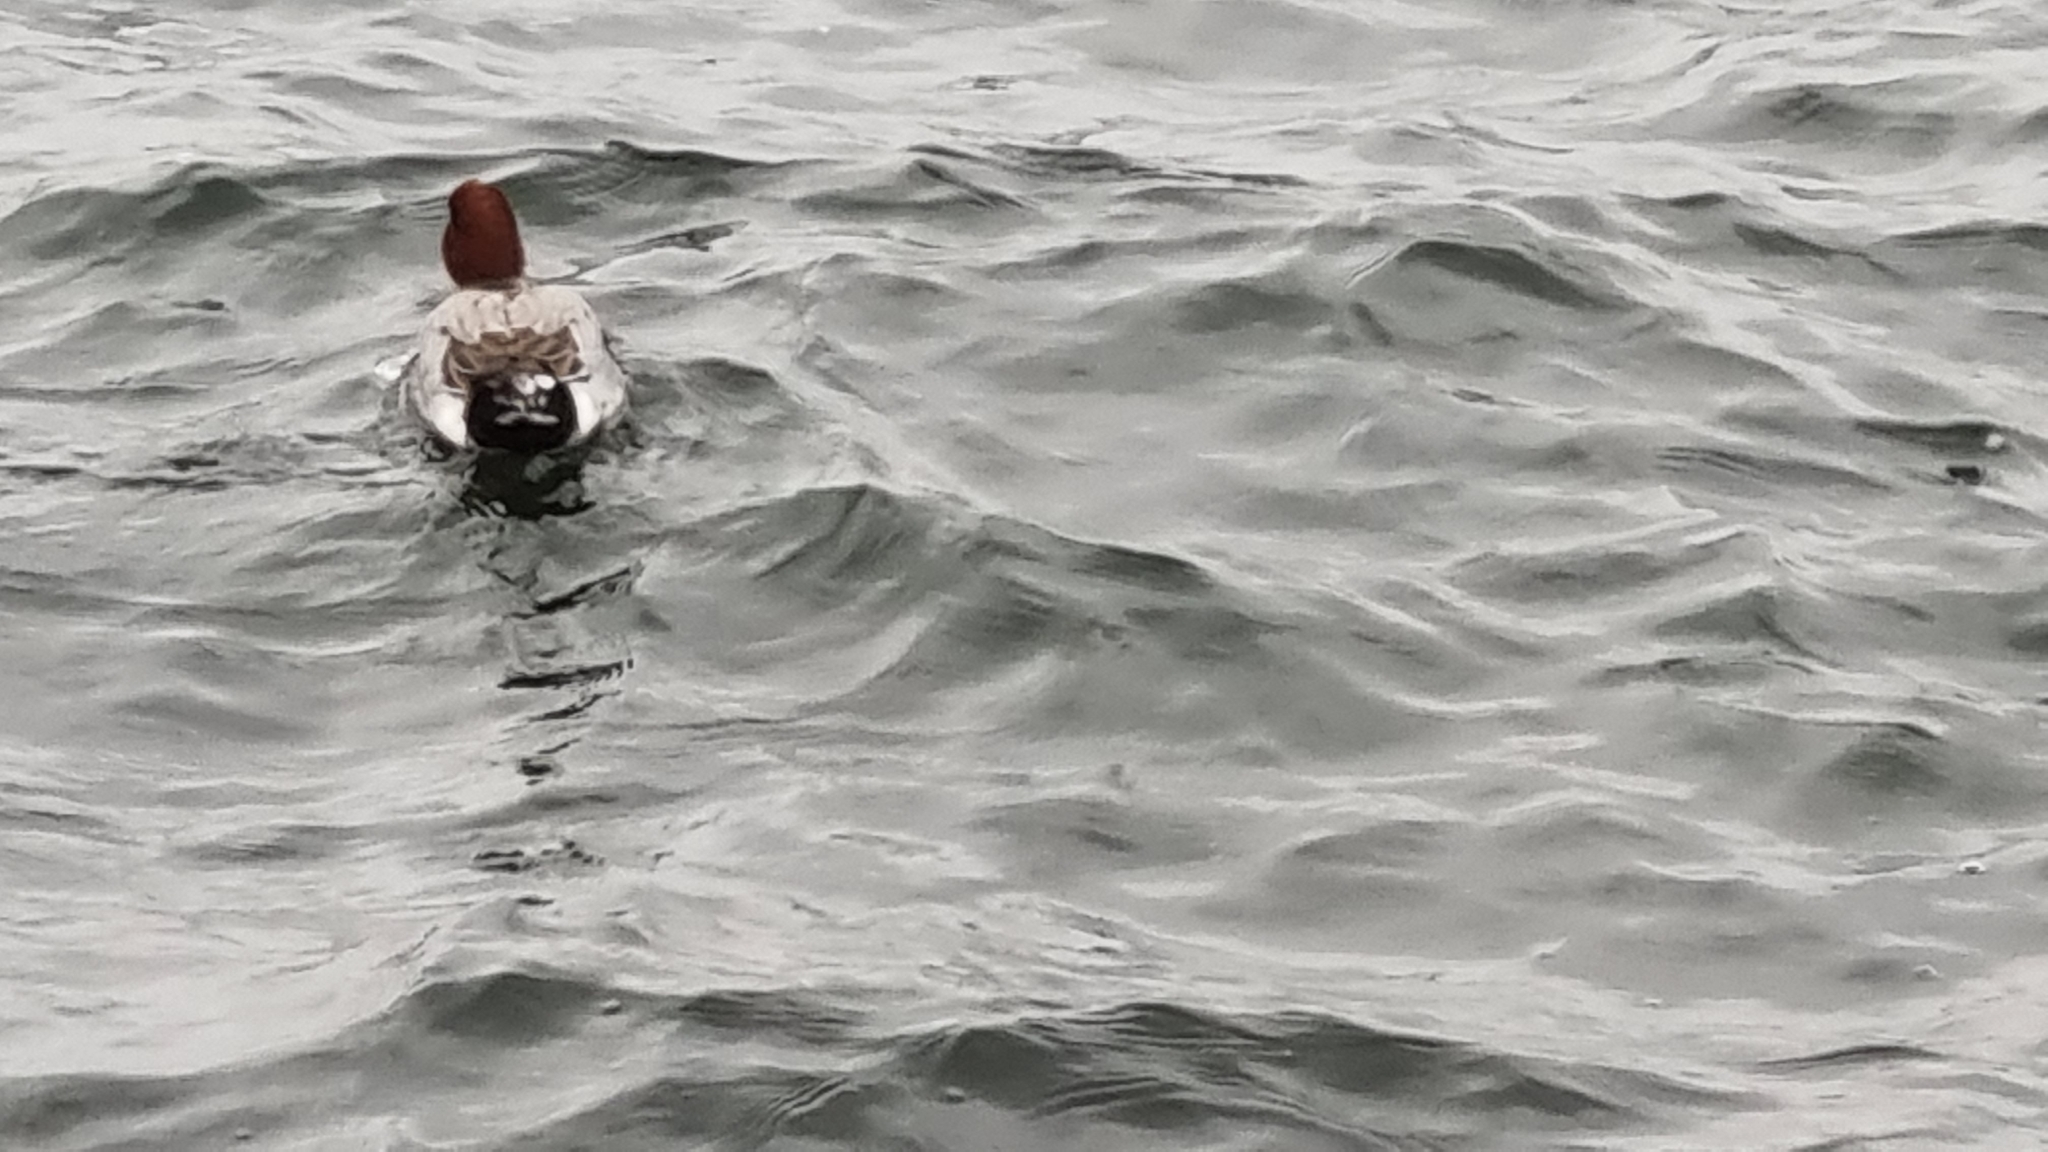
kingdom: Animalia
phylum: Chordata
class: Aves
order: Anseriformes
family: Anatidae
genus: Mareca
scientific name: Mareca penelope
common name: Eurasian wigeon
